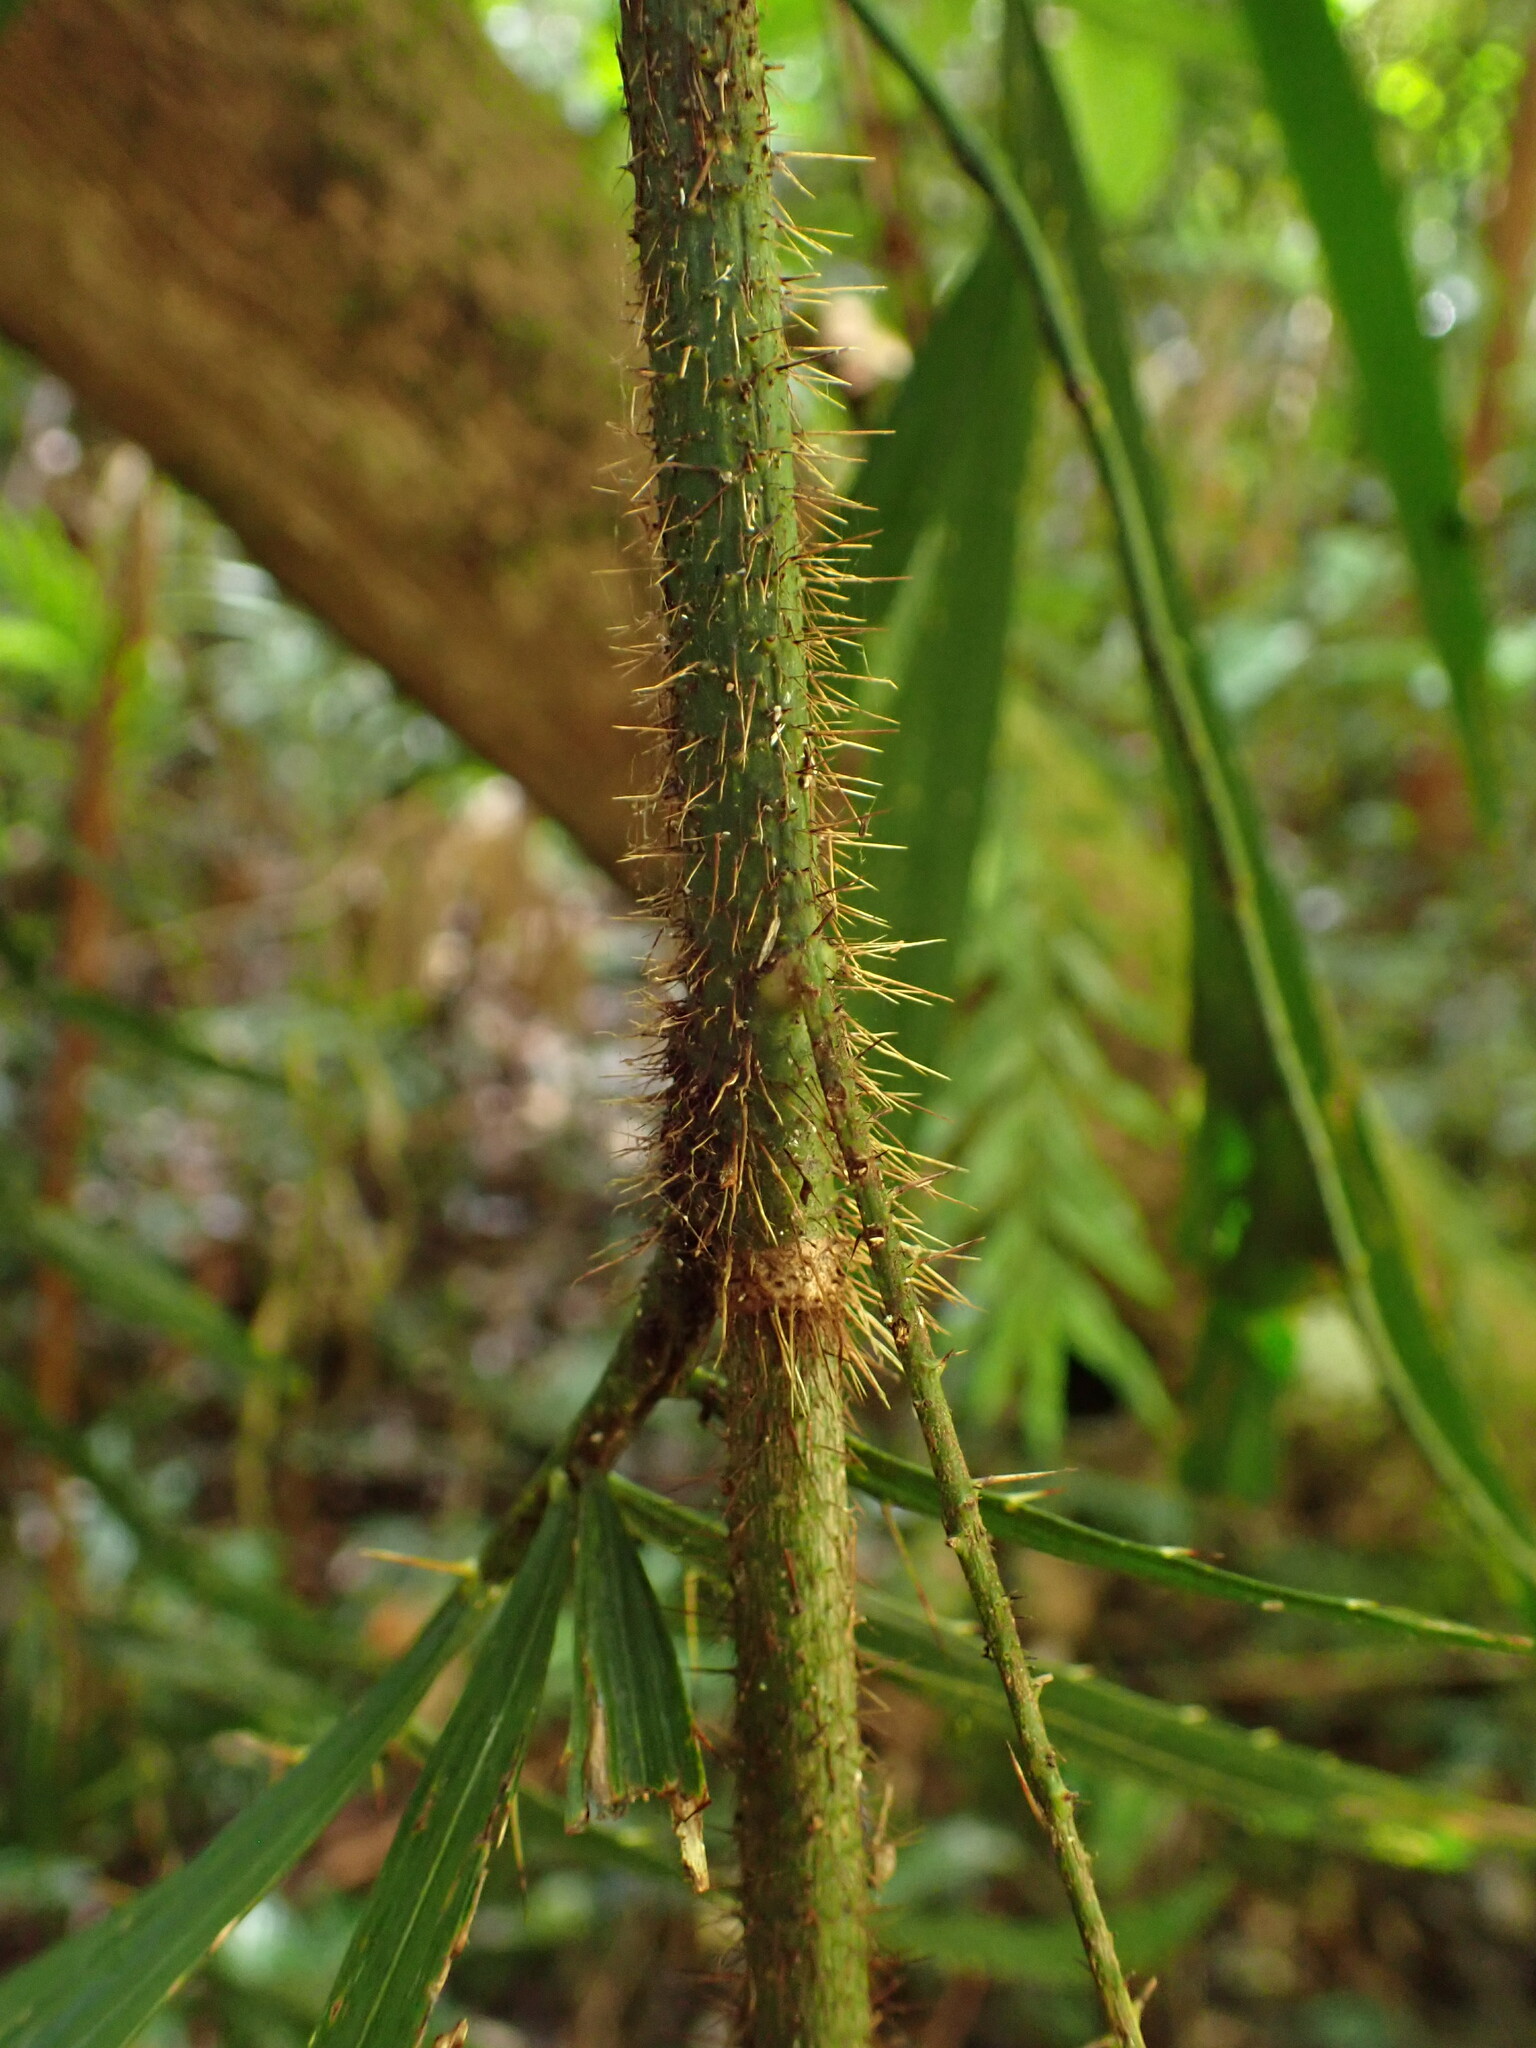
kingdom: Plantae
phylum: Tracheophyta
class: Liliopsida
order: Arecales
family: Arecaceae
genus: Calamus
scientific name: Calamus muelleri
